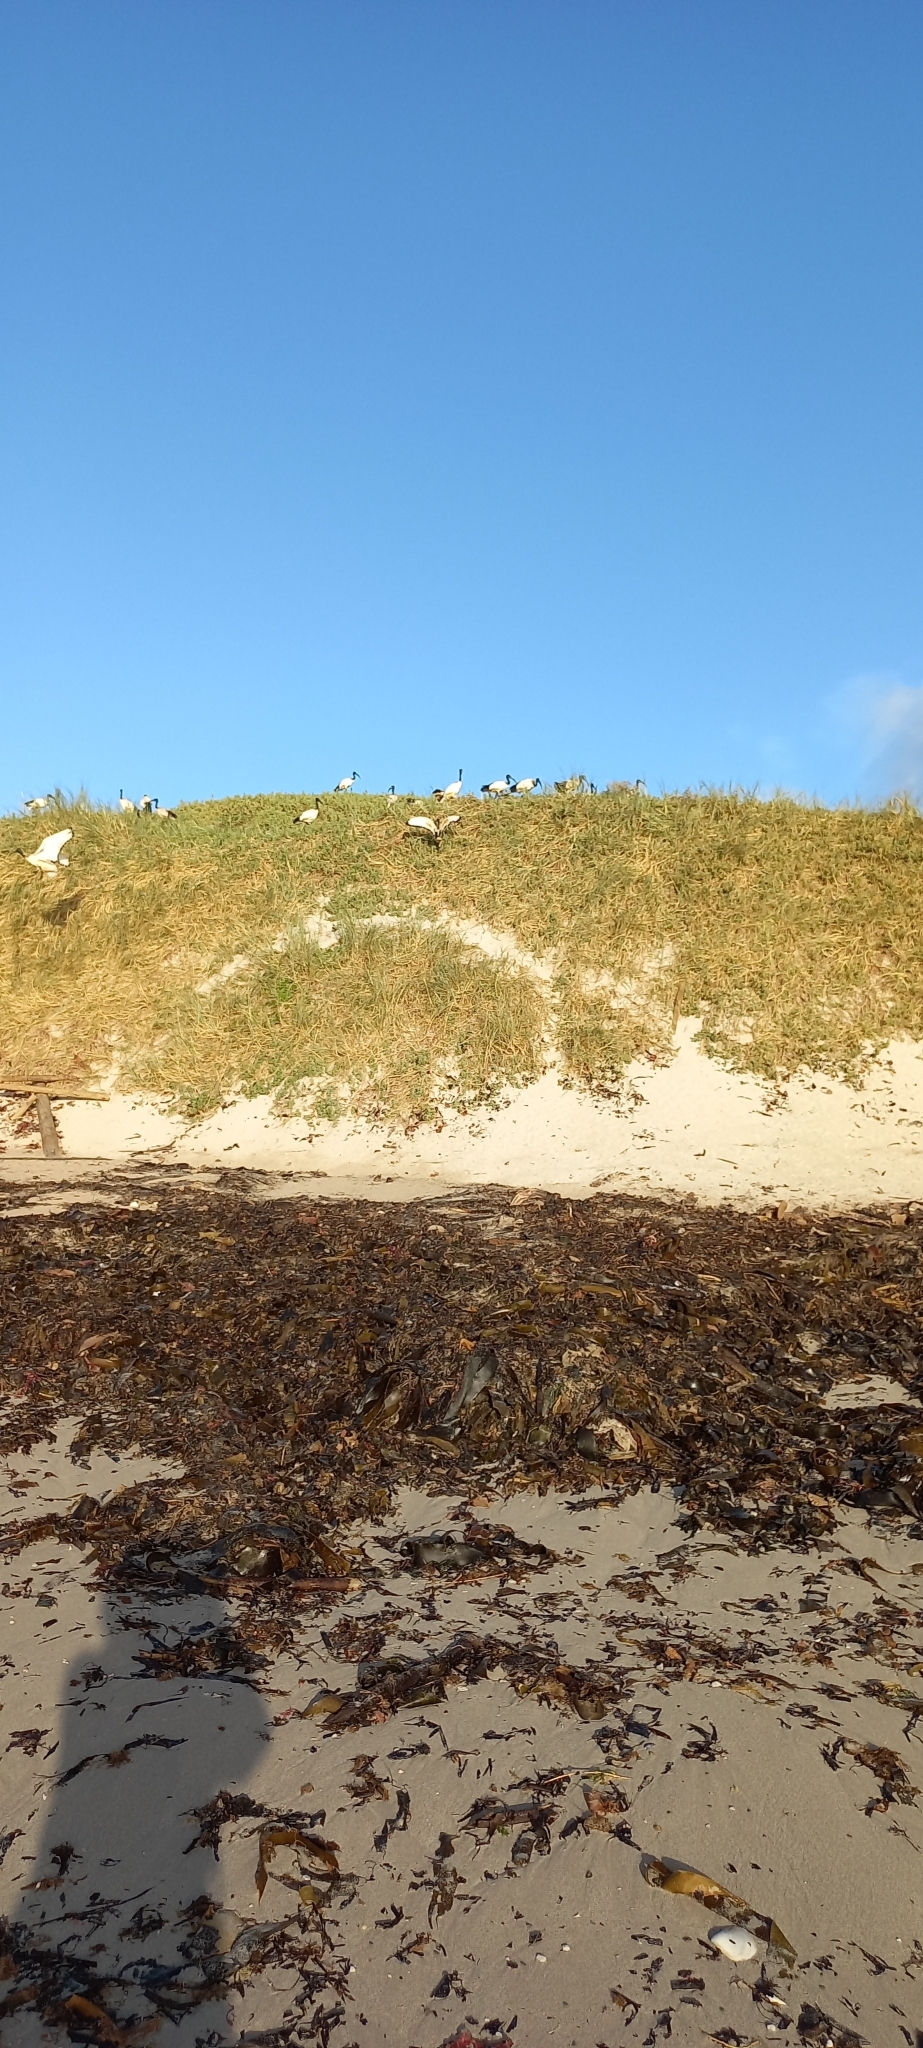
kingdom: Animalia
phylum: Chordata
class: Aves
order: Pelecaniformes
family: Threskiornithidae
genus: Threskiornis
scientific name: Threskiornis aethiopicus
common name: Sacred ibis
